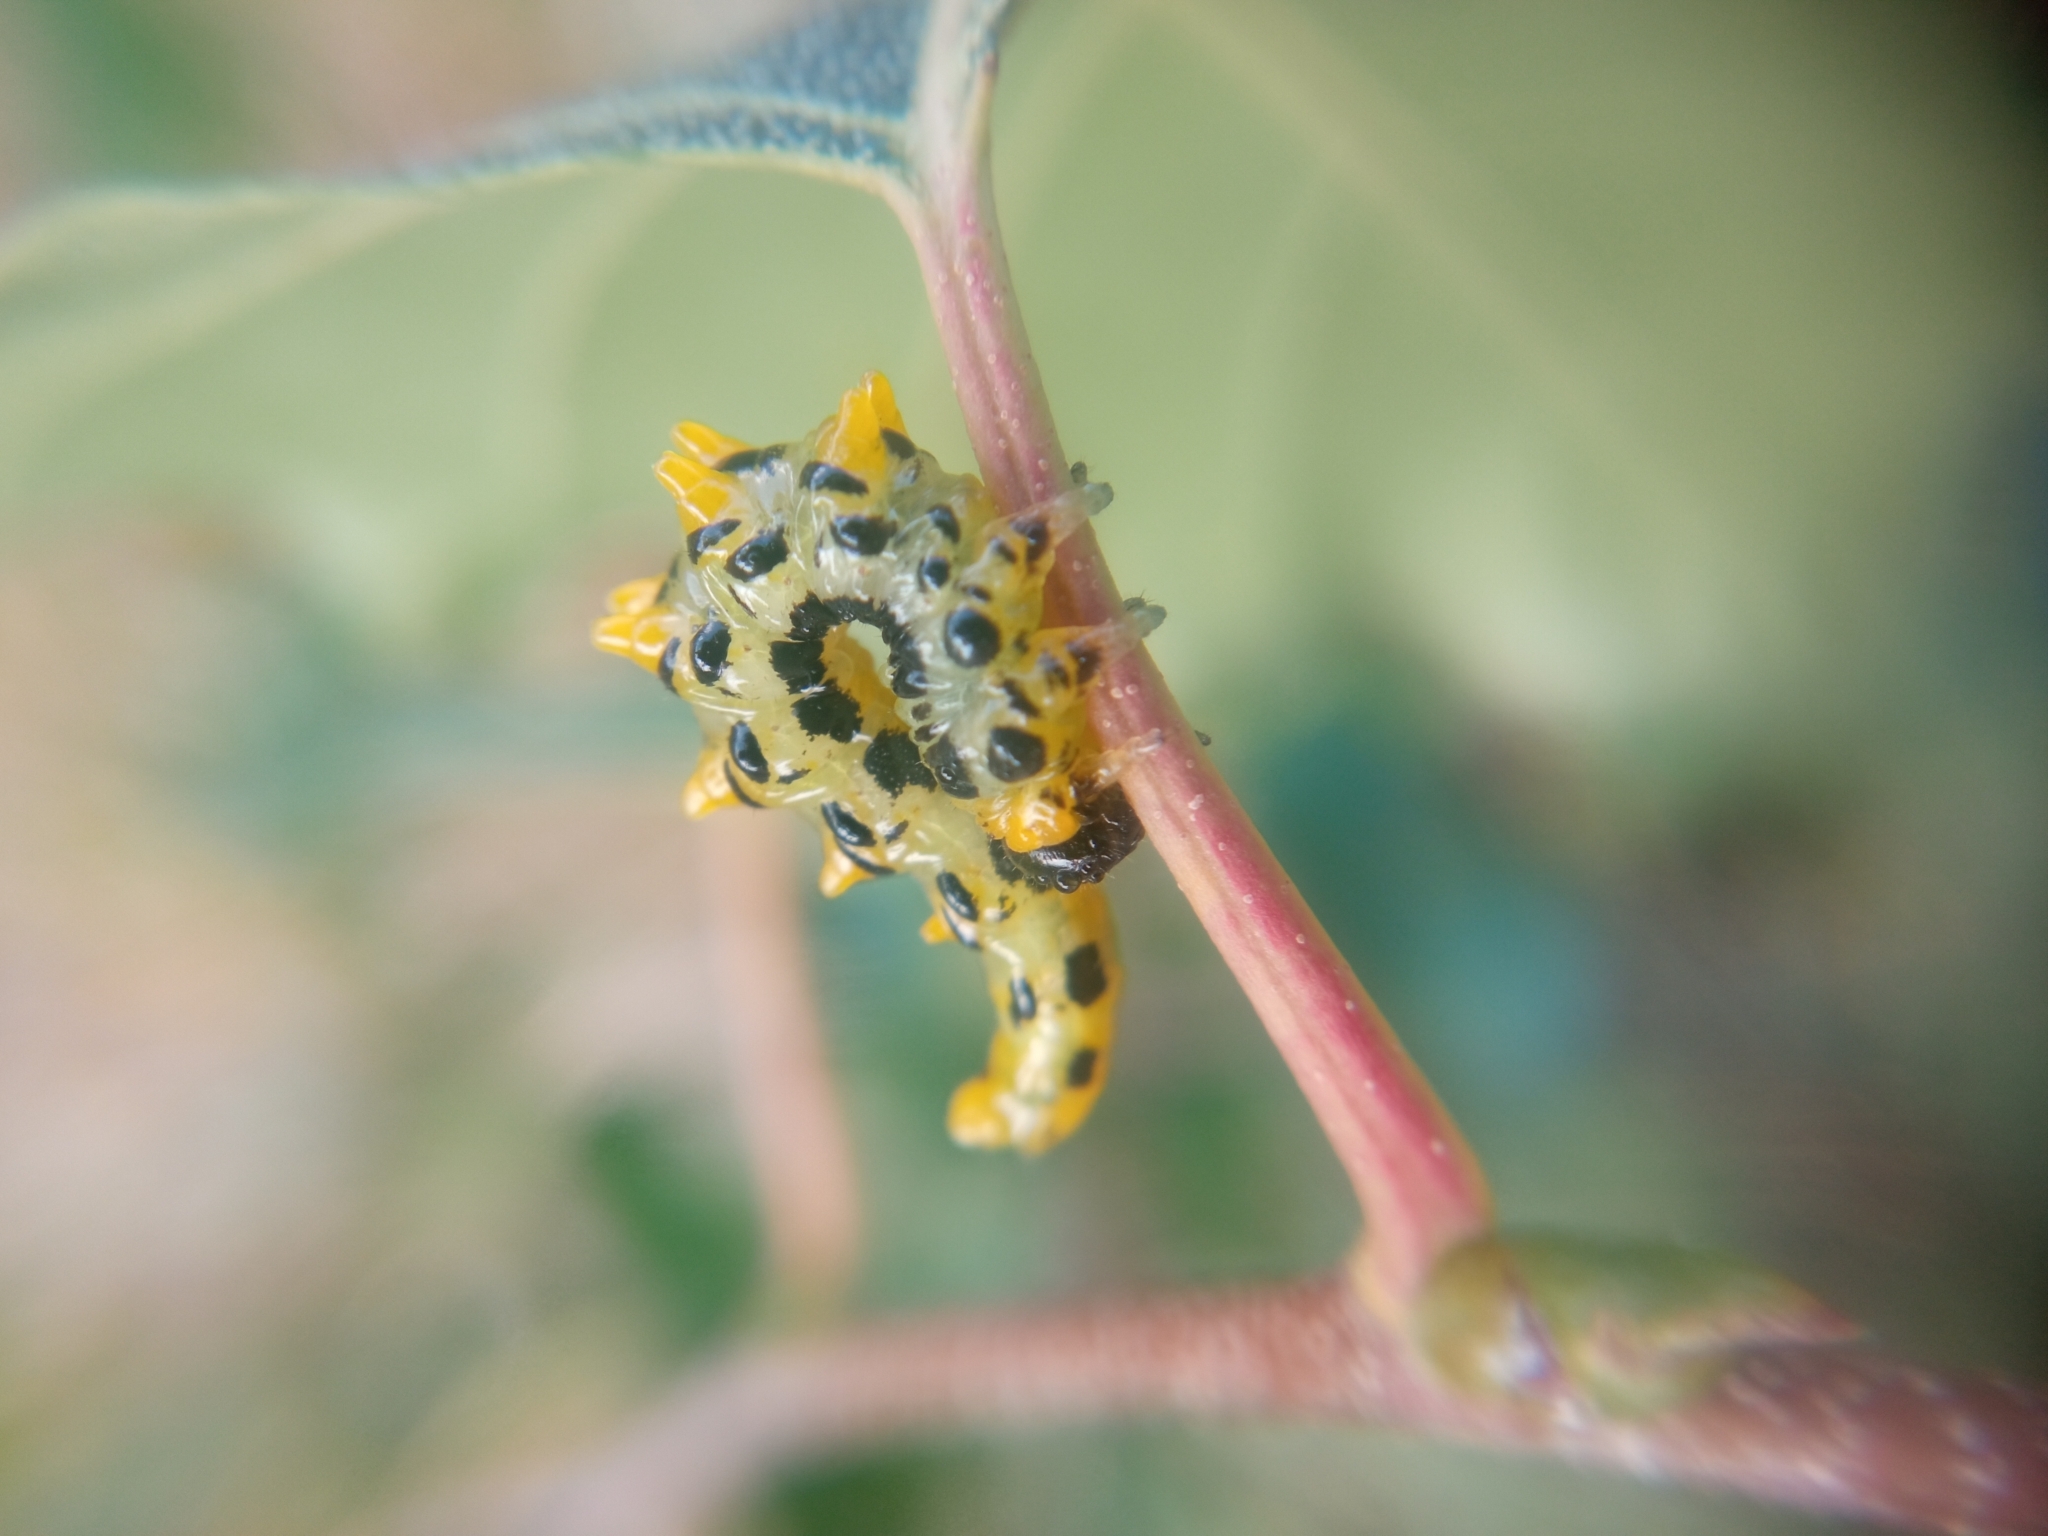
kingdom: Animalia
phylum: Arthropoda
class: Insecta
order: Hymenoptera
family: Tenthredinidae
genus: Craesus
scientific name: Craesus septentrionalis
